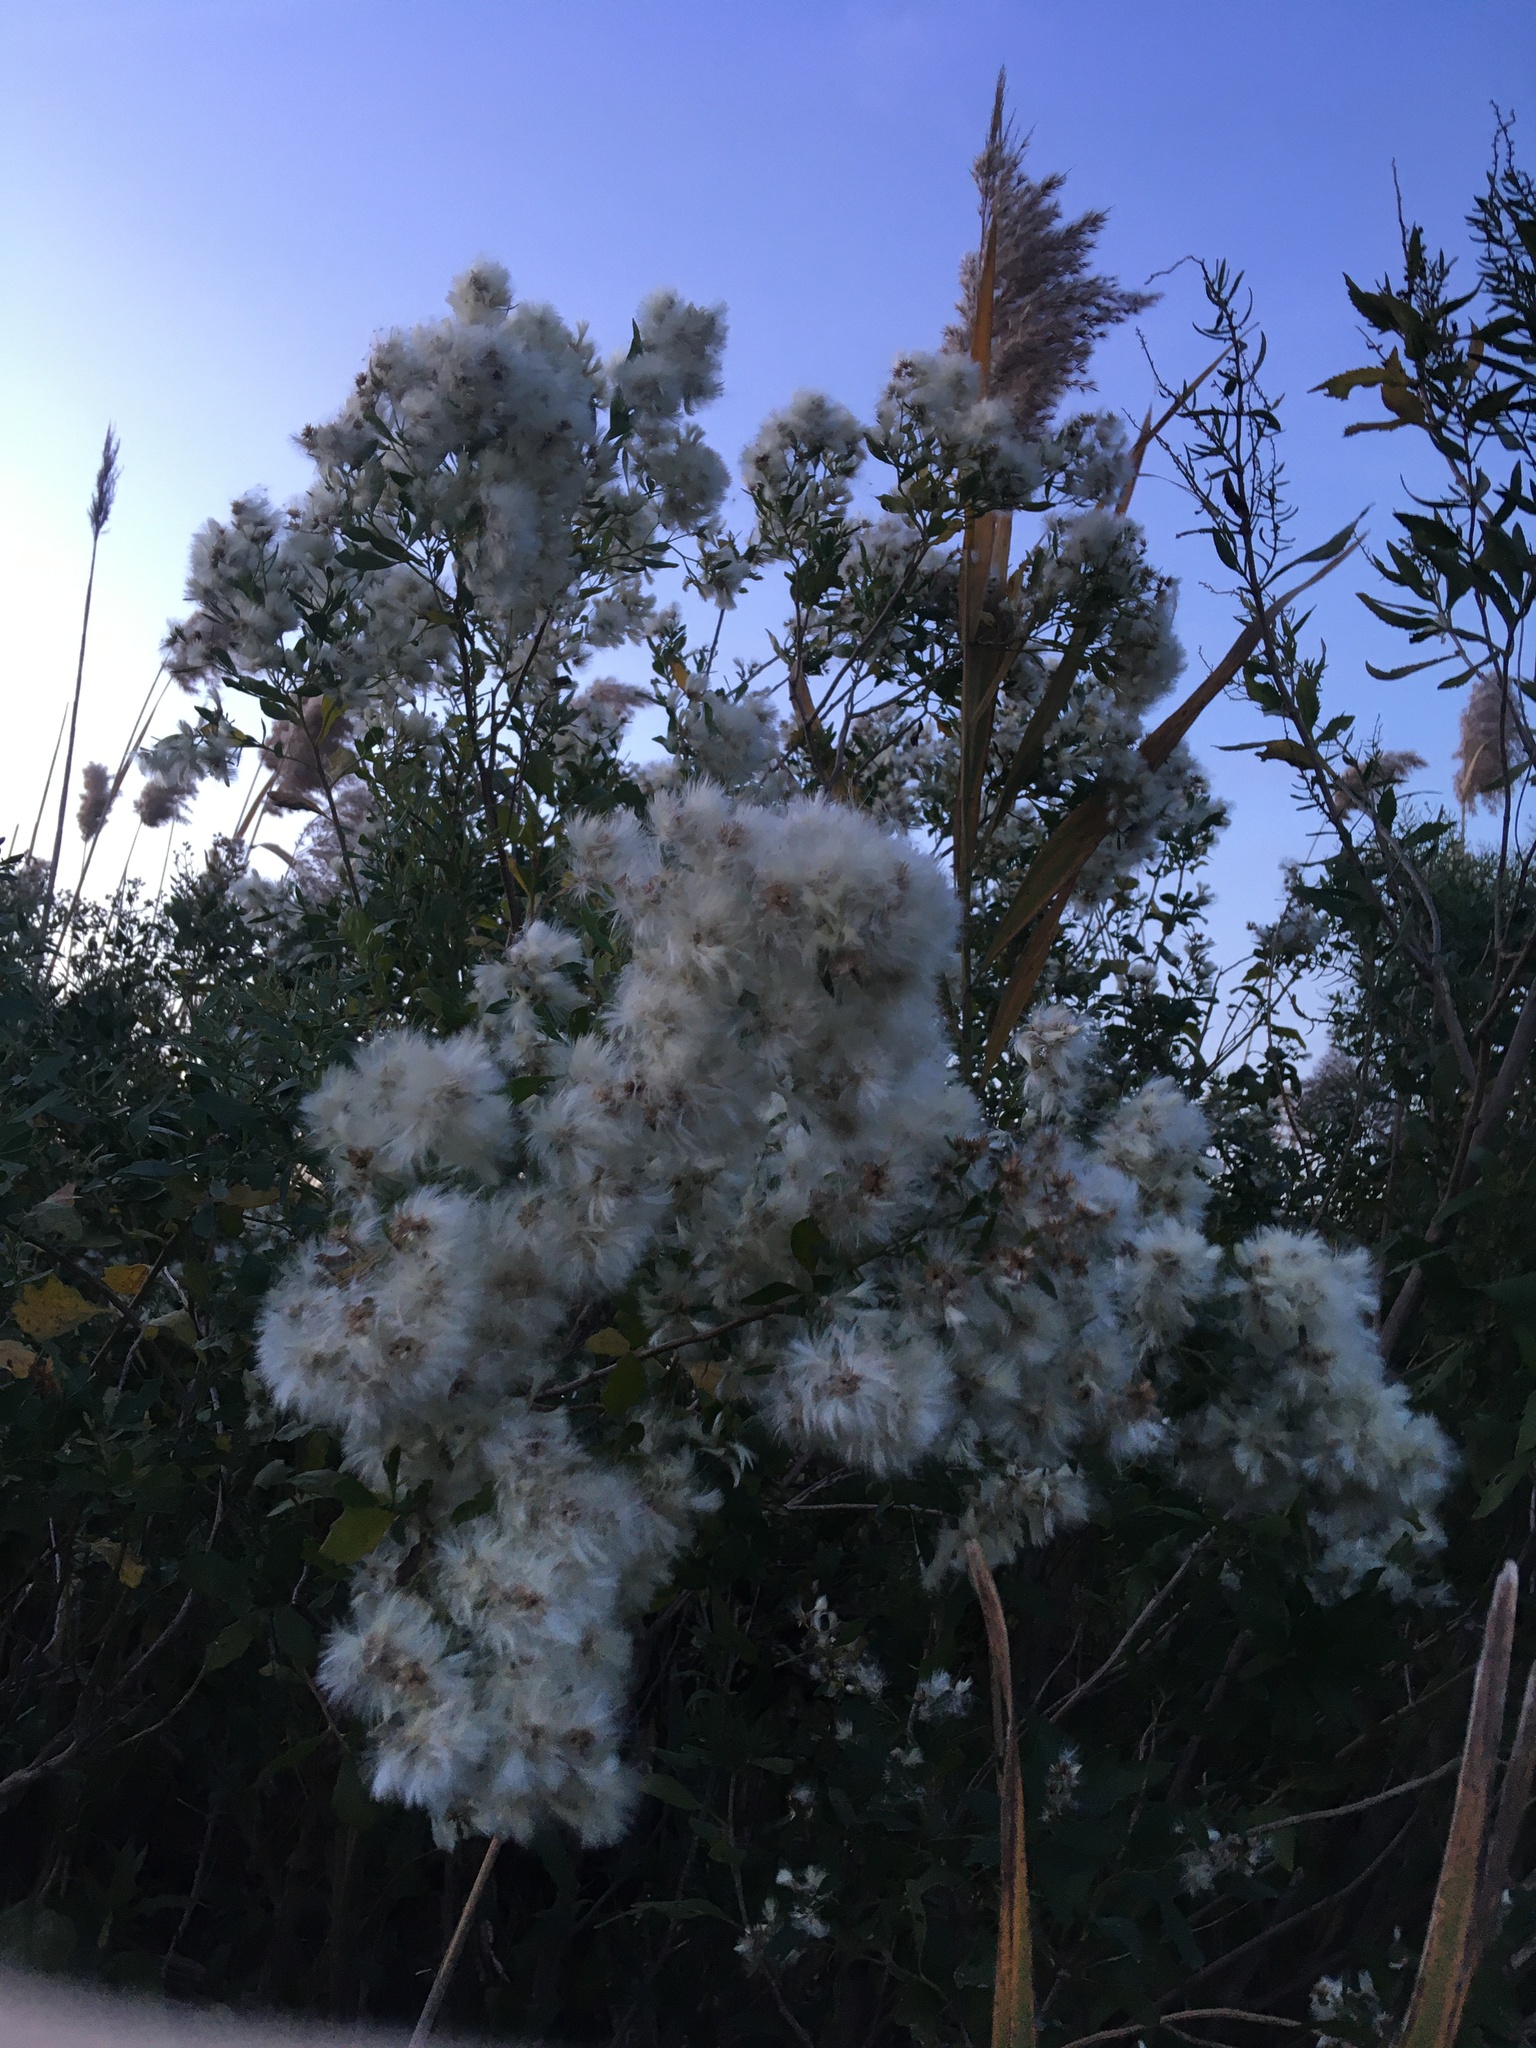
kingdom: Plantae
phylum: Tracheophyta
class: Magnoliopsida
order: Asterales
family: Asteraceae
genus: Baccharis
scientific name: Baccharis halimifolia
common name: Eastern baccharis
